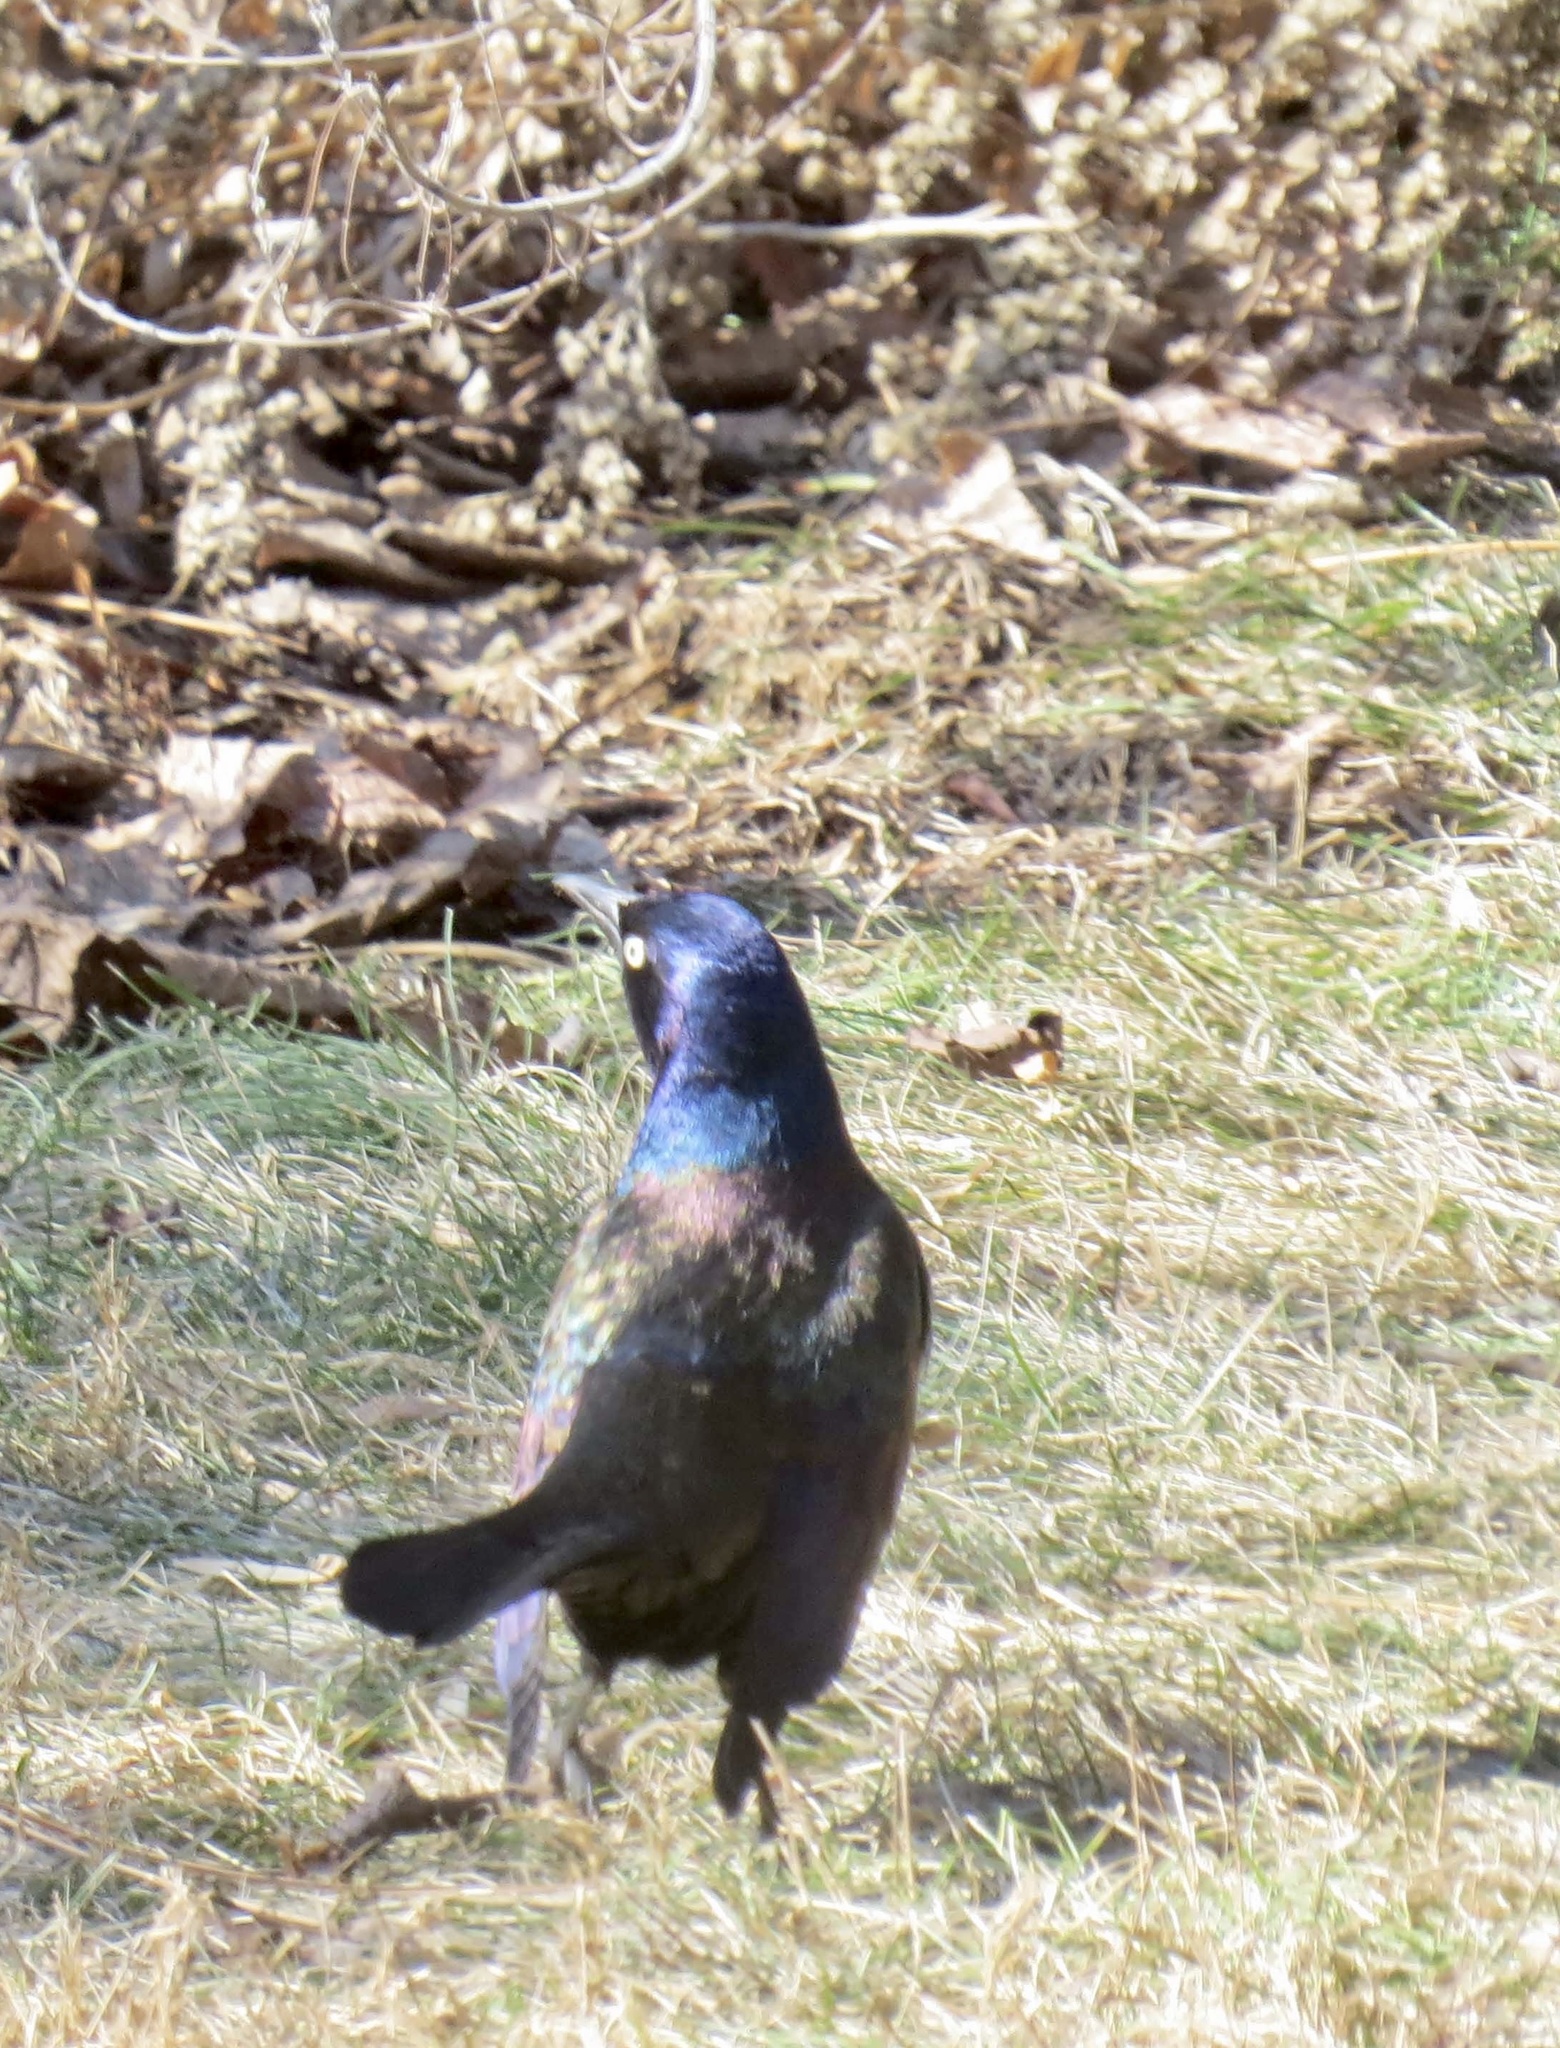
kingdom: Animalia
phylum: Chordata
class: Aves
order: Passeriformes
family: Icteridae
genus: Quiscalus
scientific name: Quiscalus quiscula
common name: Common grackle
